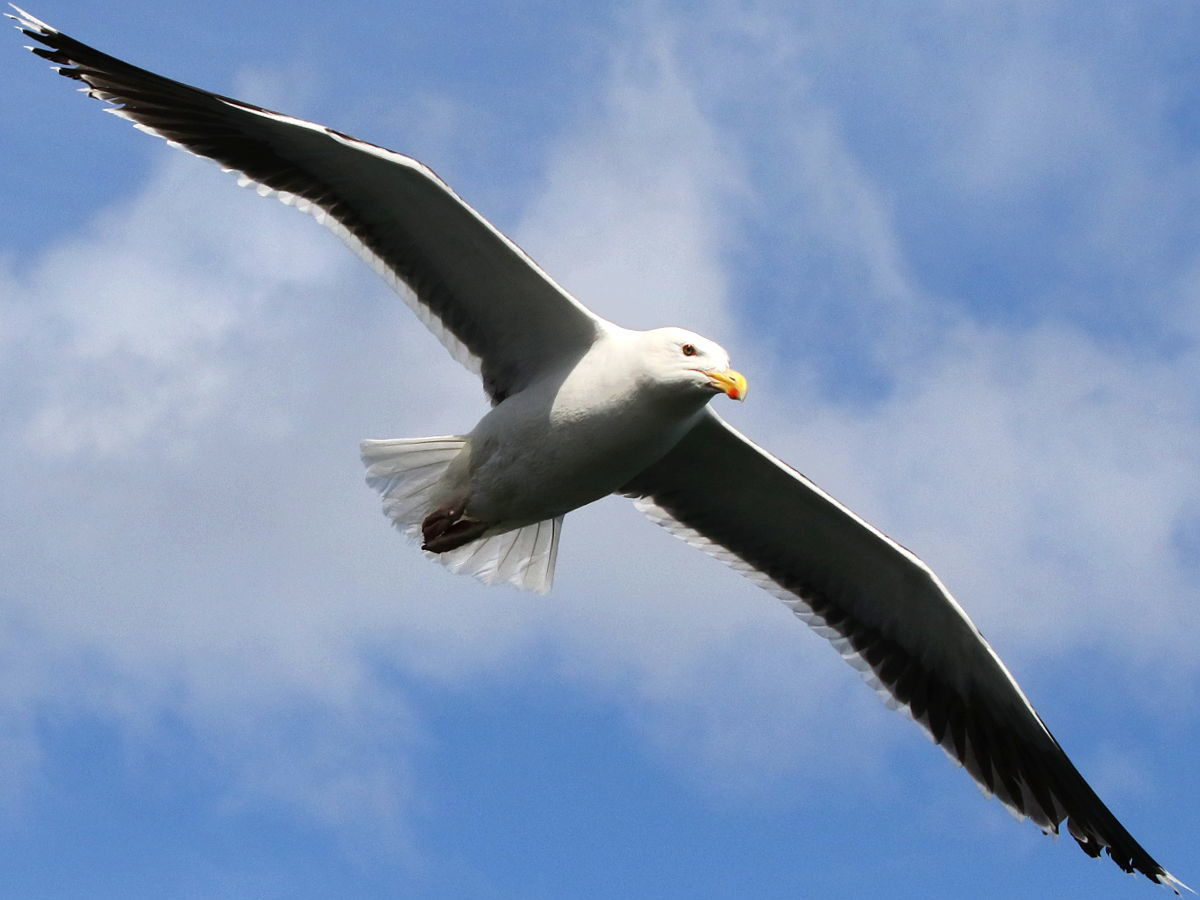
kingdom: Animalia
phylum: Chordata
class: Aves
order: Charadriiformes
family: Laridae
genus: Larus
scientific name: Larus marinus
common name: Great black-backed gull
